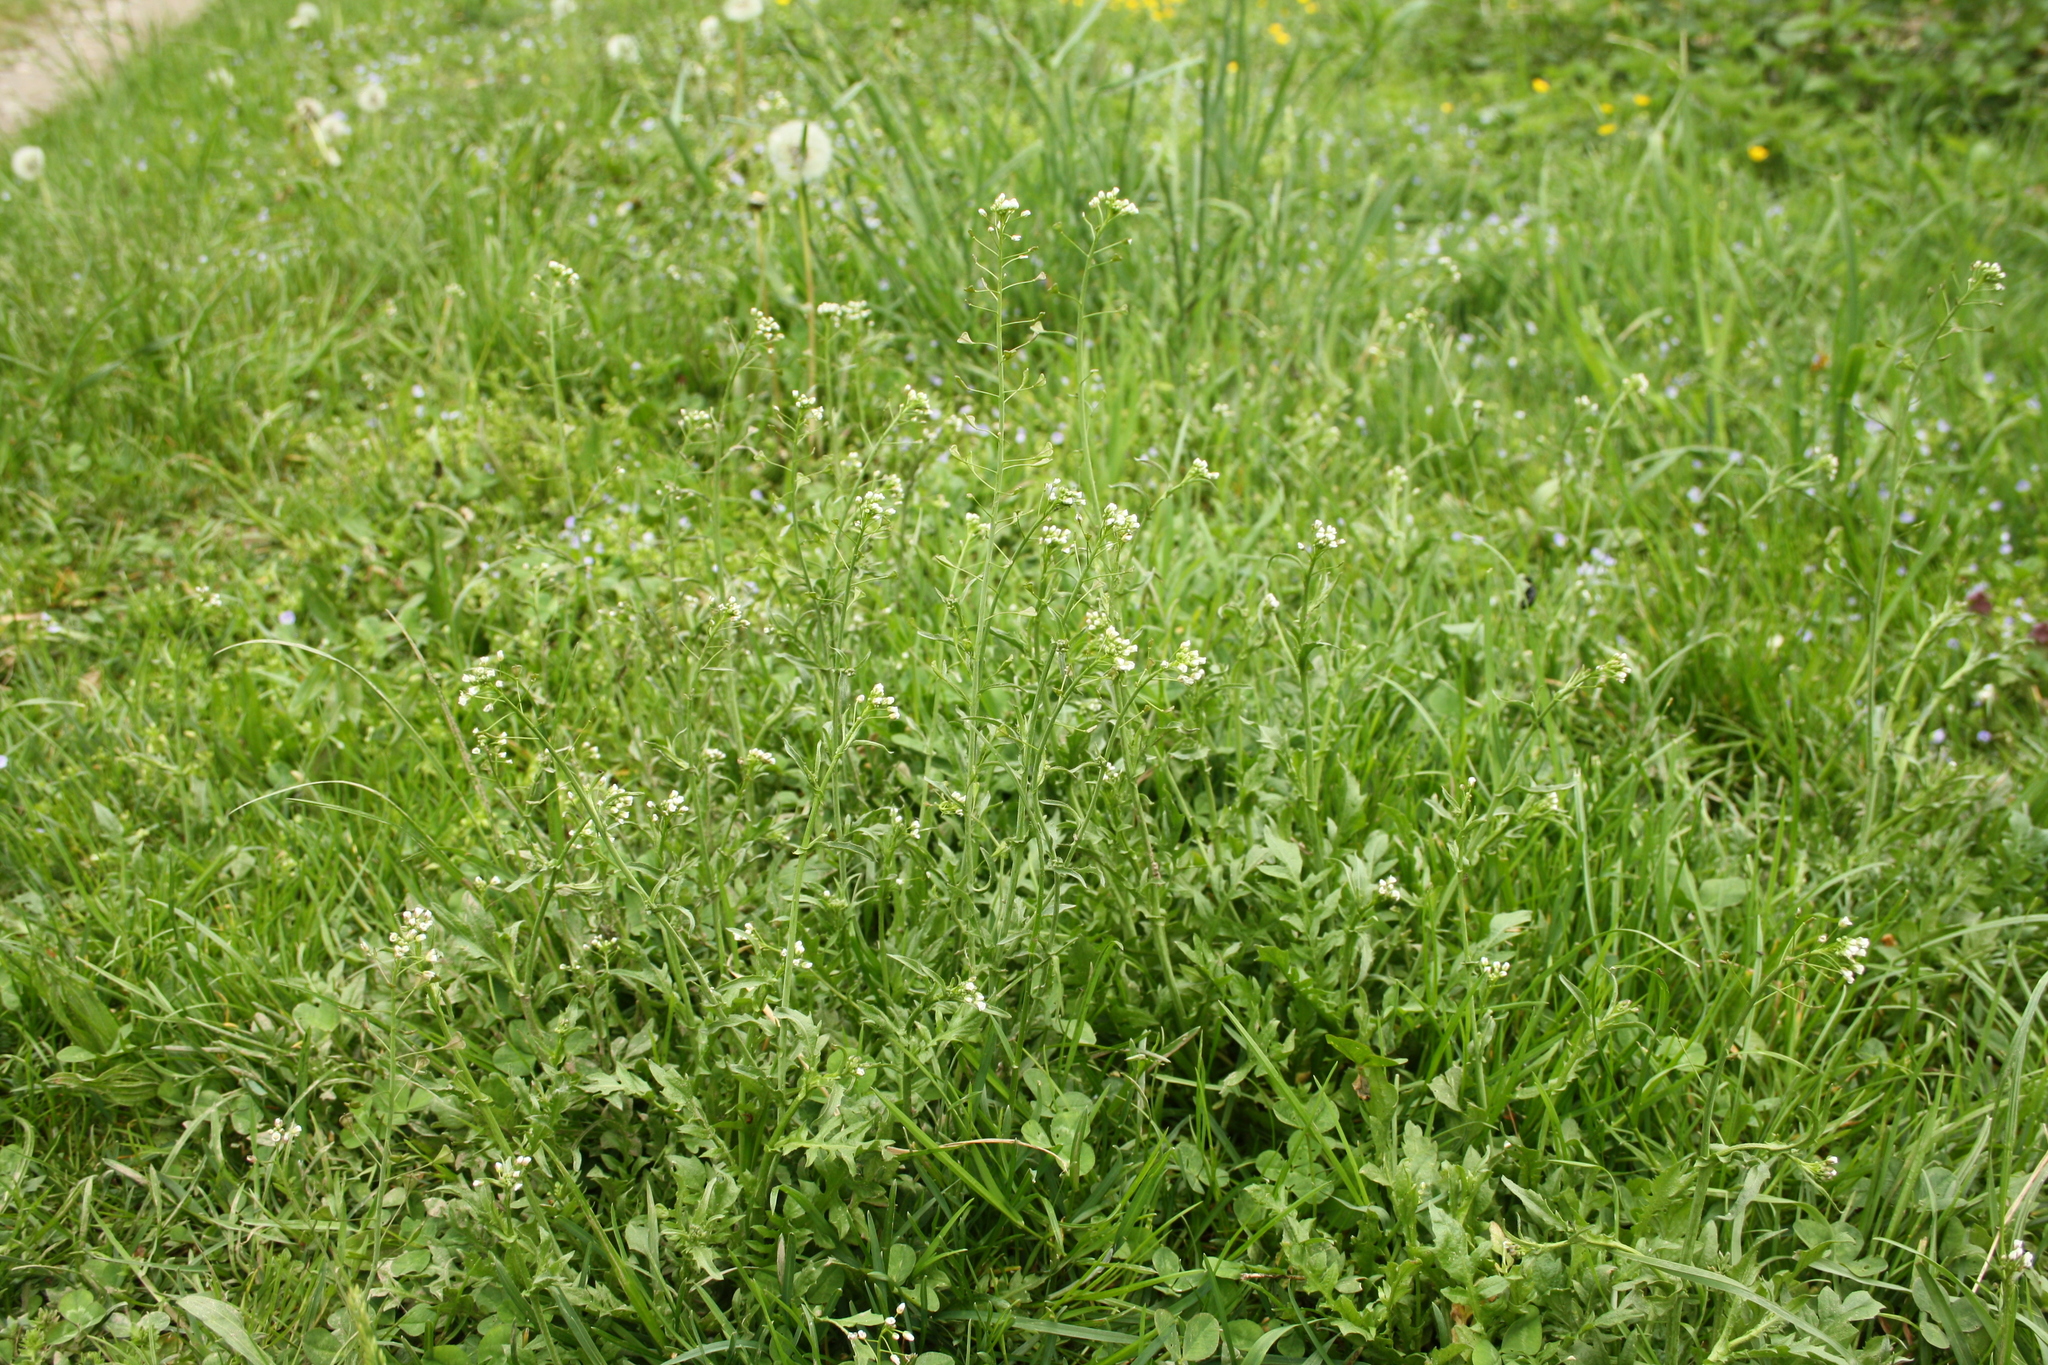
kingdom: Plantae
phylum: Tracheophyta
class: Magnoliopsida
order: Brassicales
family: Brassicaceae
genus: Capsella
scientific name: Capsella bursa-pastoris
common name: Shepherd's purse
